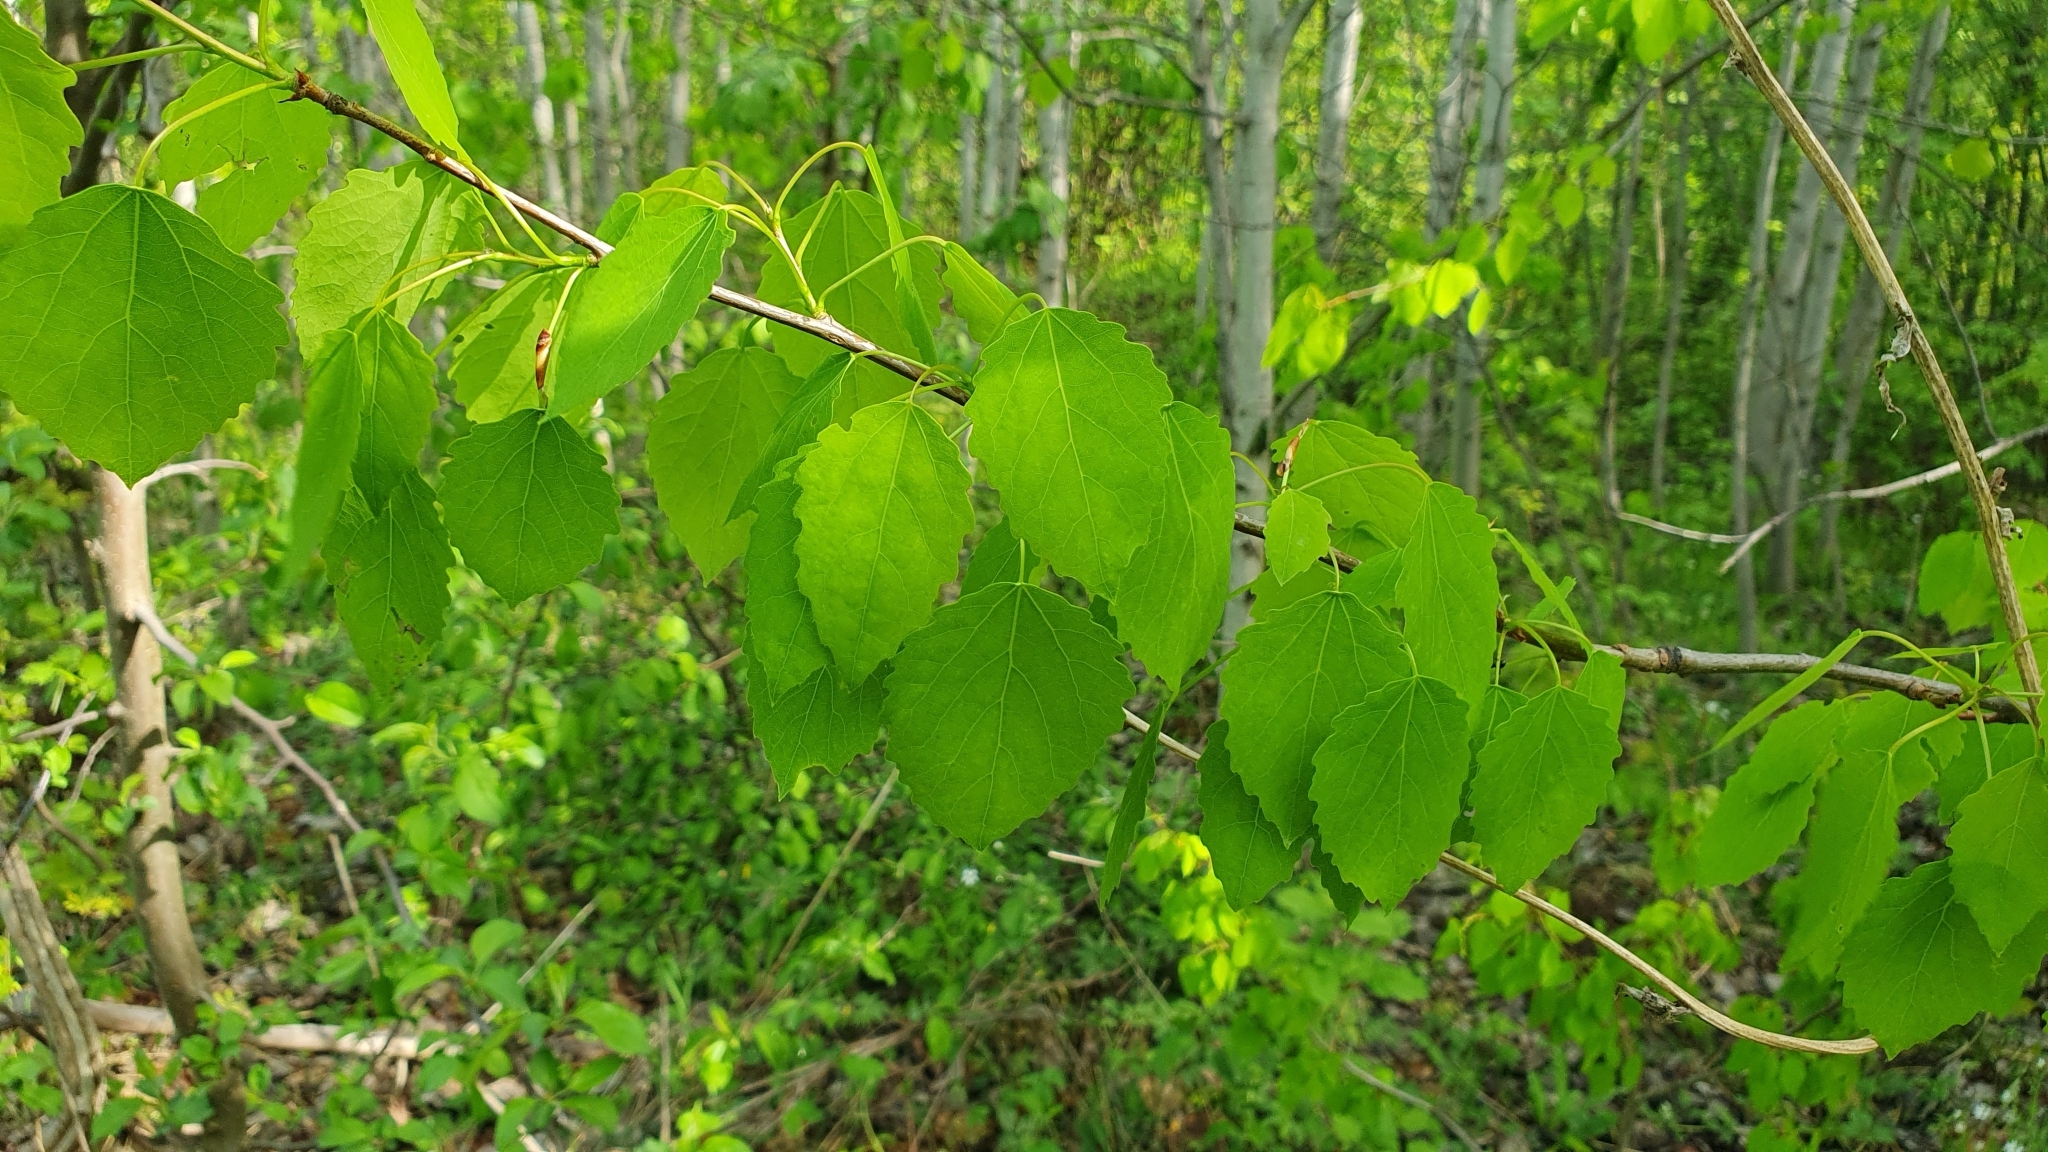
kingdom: Plantae
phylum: Tracheophyta
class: Magnoliopsida
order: Malpighiales
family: Salicaceae
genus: Populus
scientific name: Populus tremula
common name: European aspen
